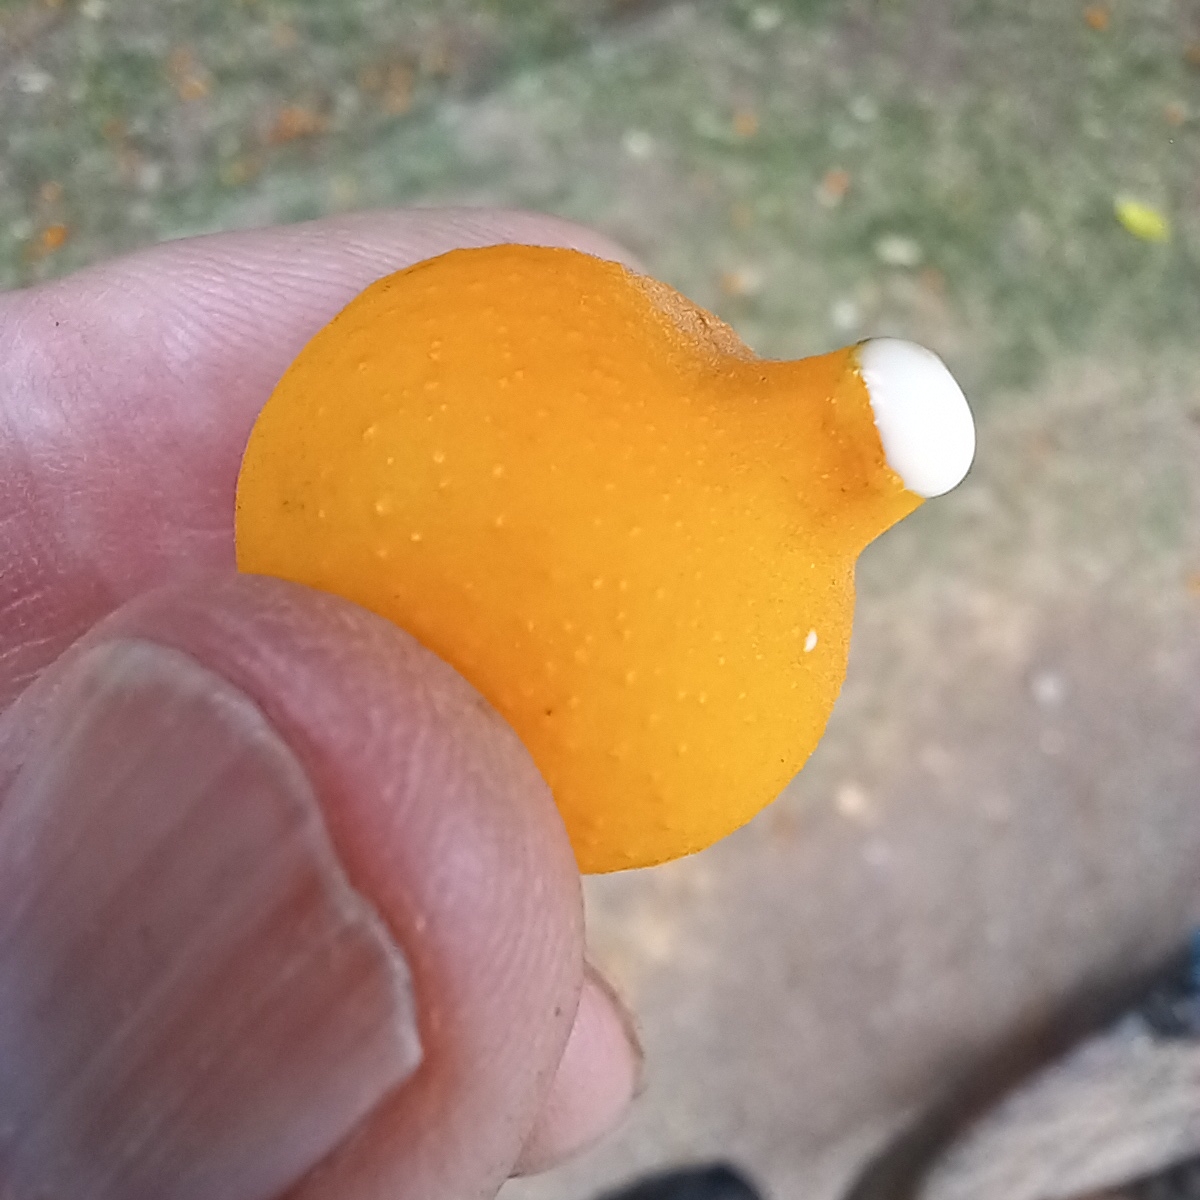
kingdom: Plantae
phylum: Tracheophyta
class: Magnoliopsida
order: Rosales
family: Moraceae
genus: Ficus
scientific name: Ficus benjamina
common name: Weeping fig
